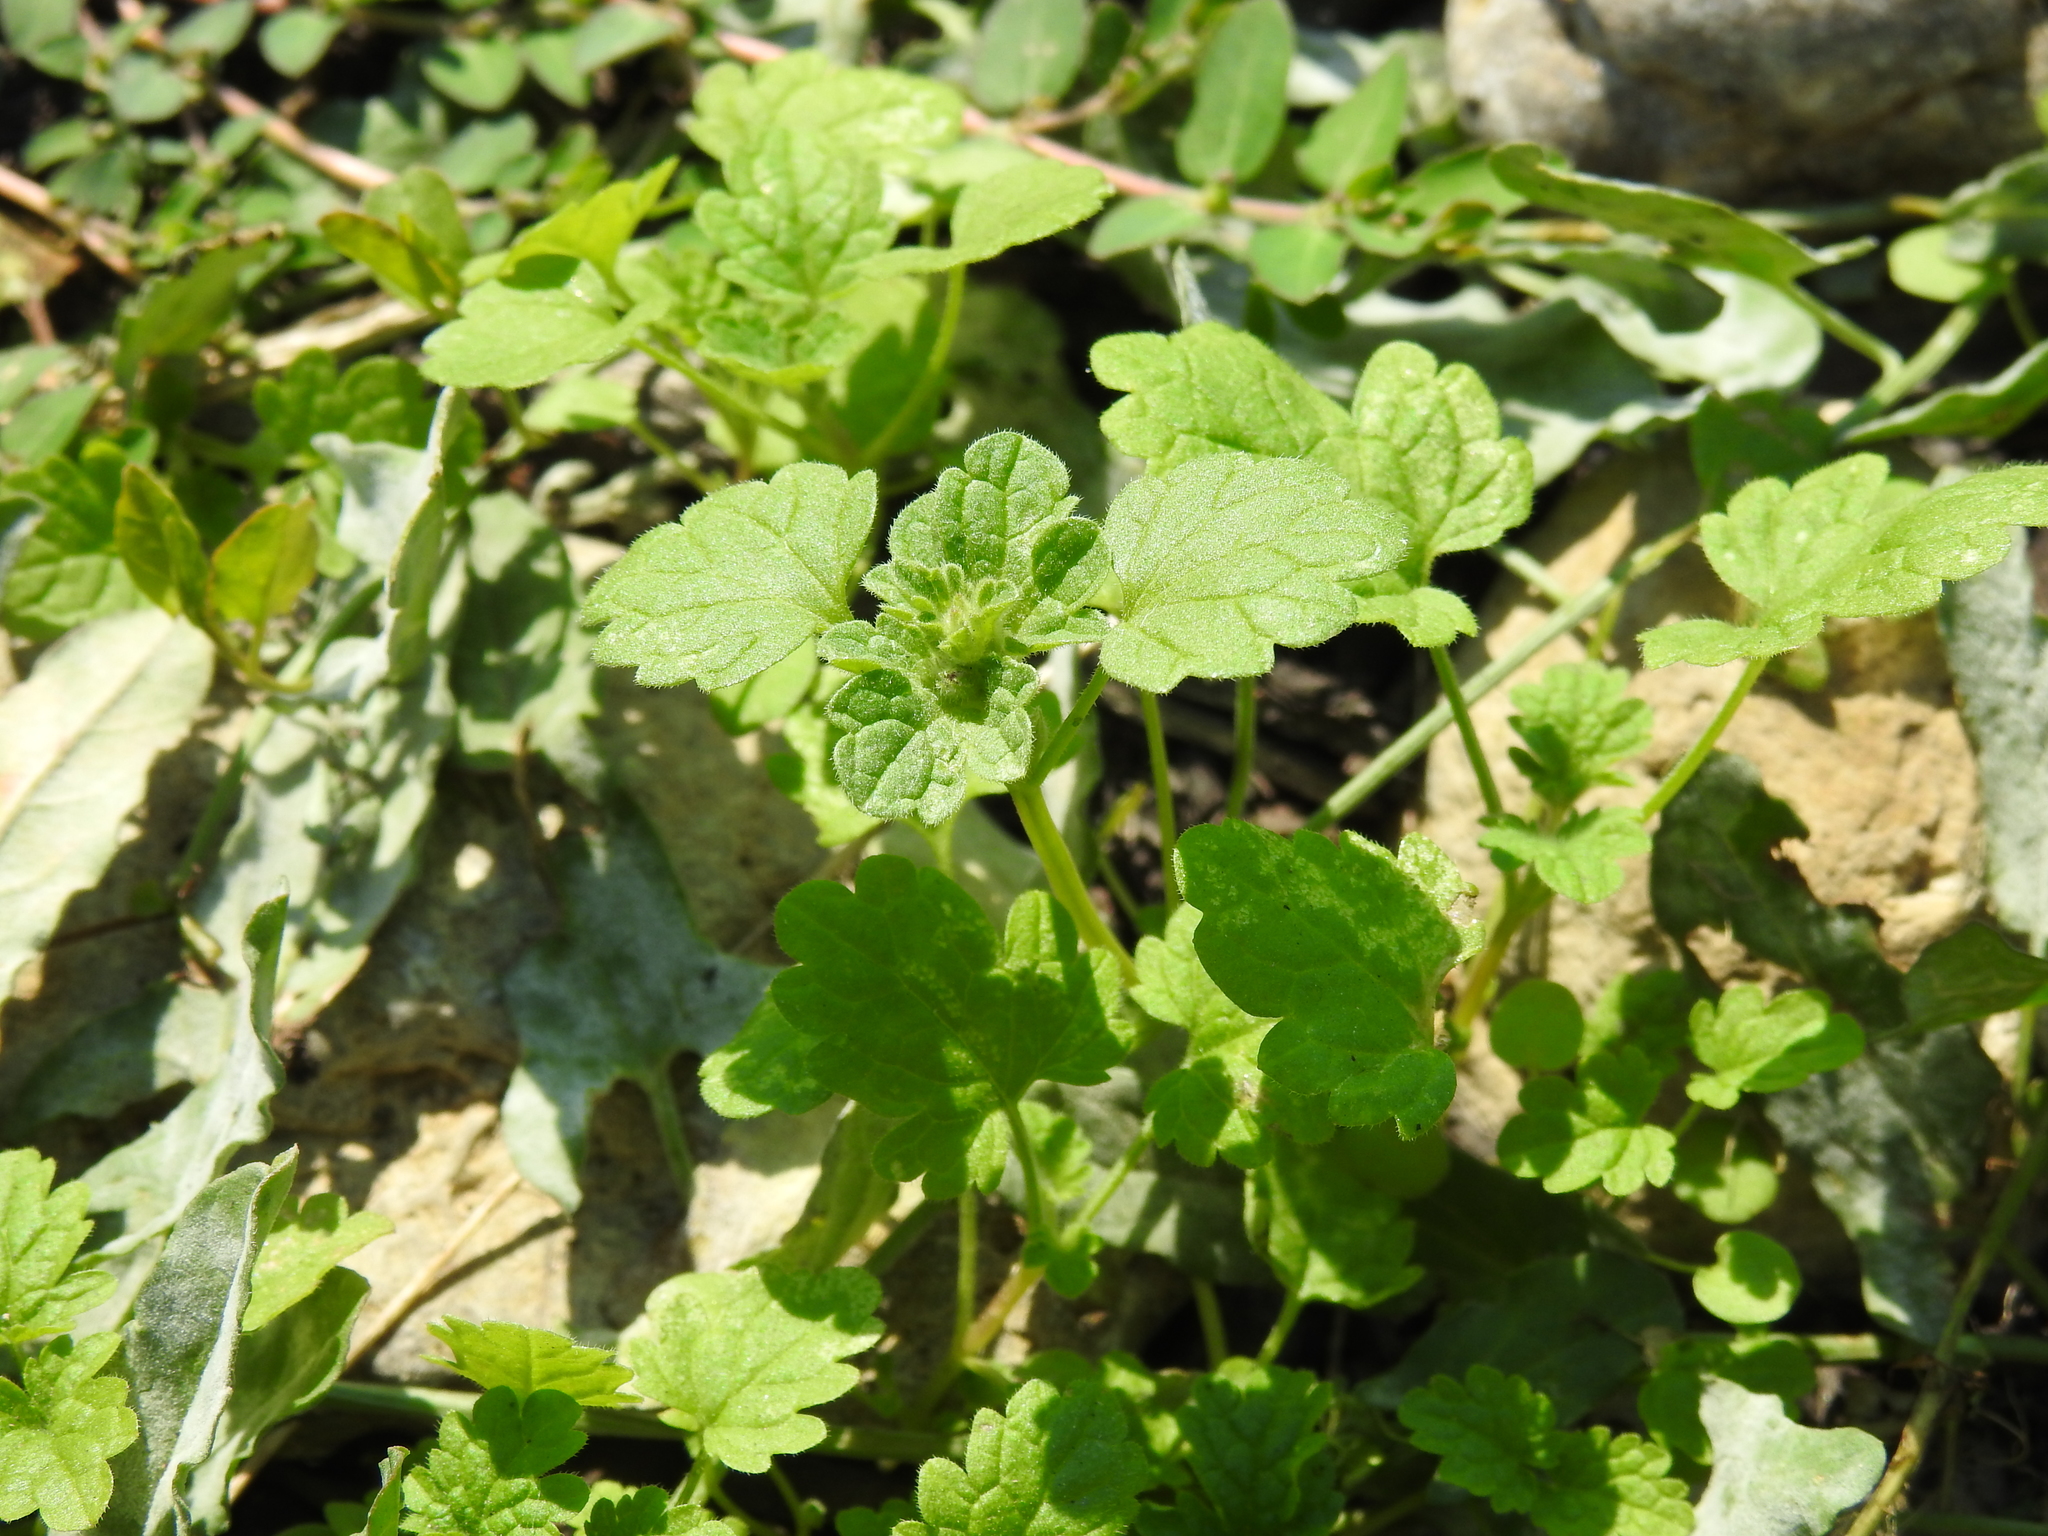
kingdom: Plantae
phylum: Tracheophyta
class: Magnoliopsida
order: Lamiales
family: Lamiaceae
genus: Lamium
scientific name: Lamium amplexicaule
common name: Henbit dead-nettle
